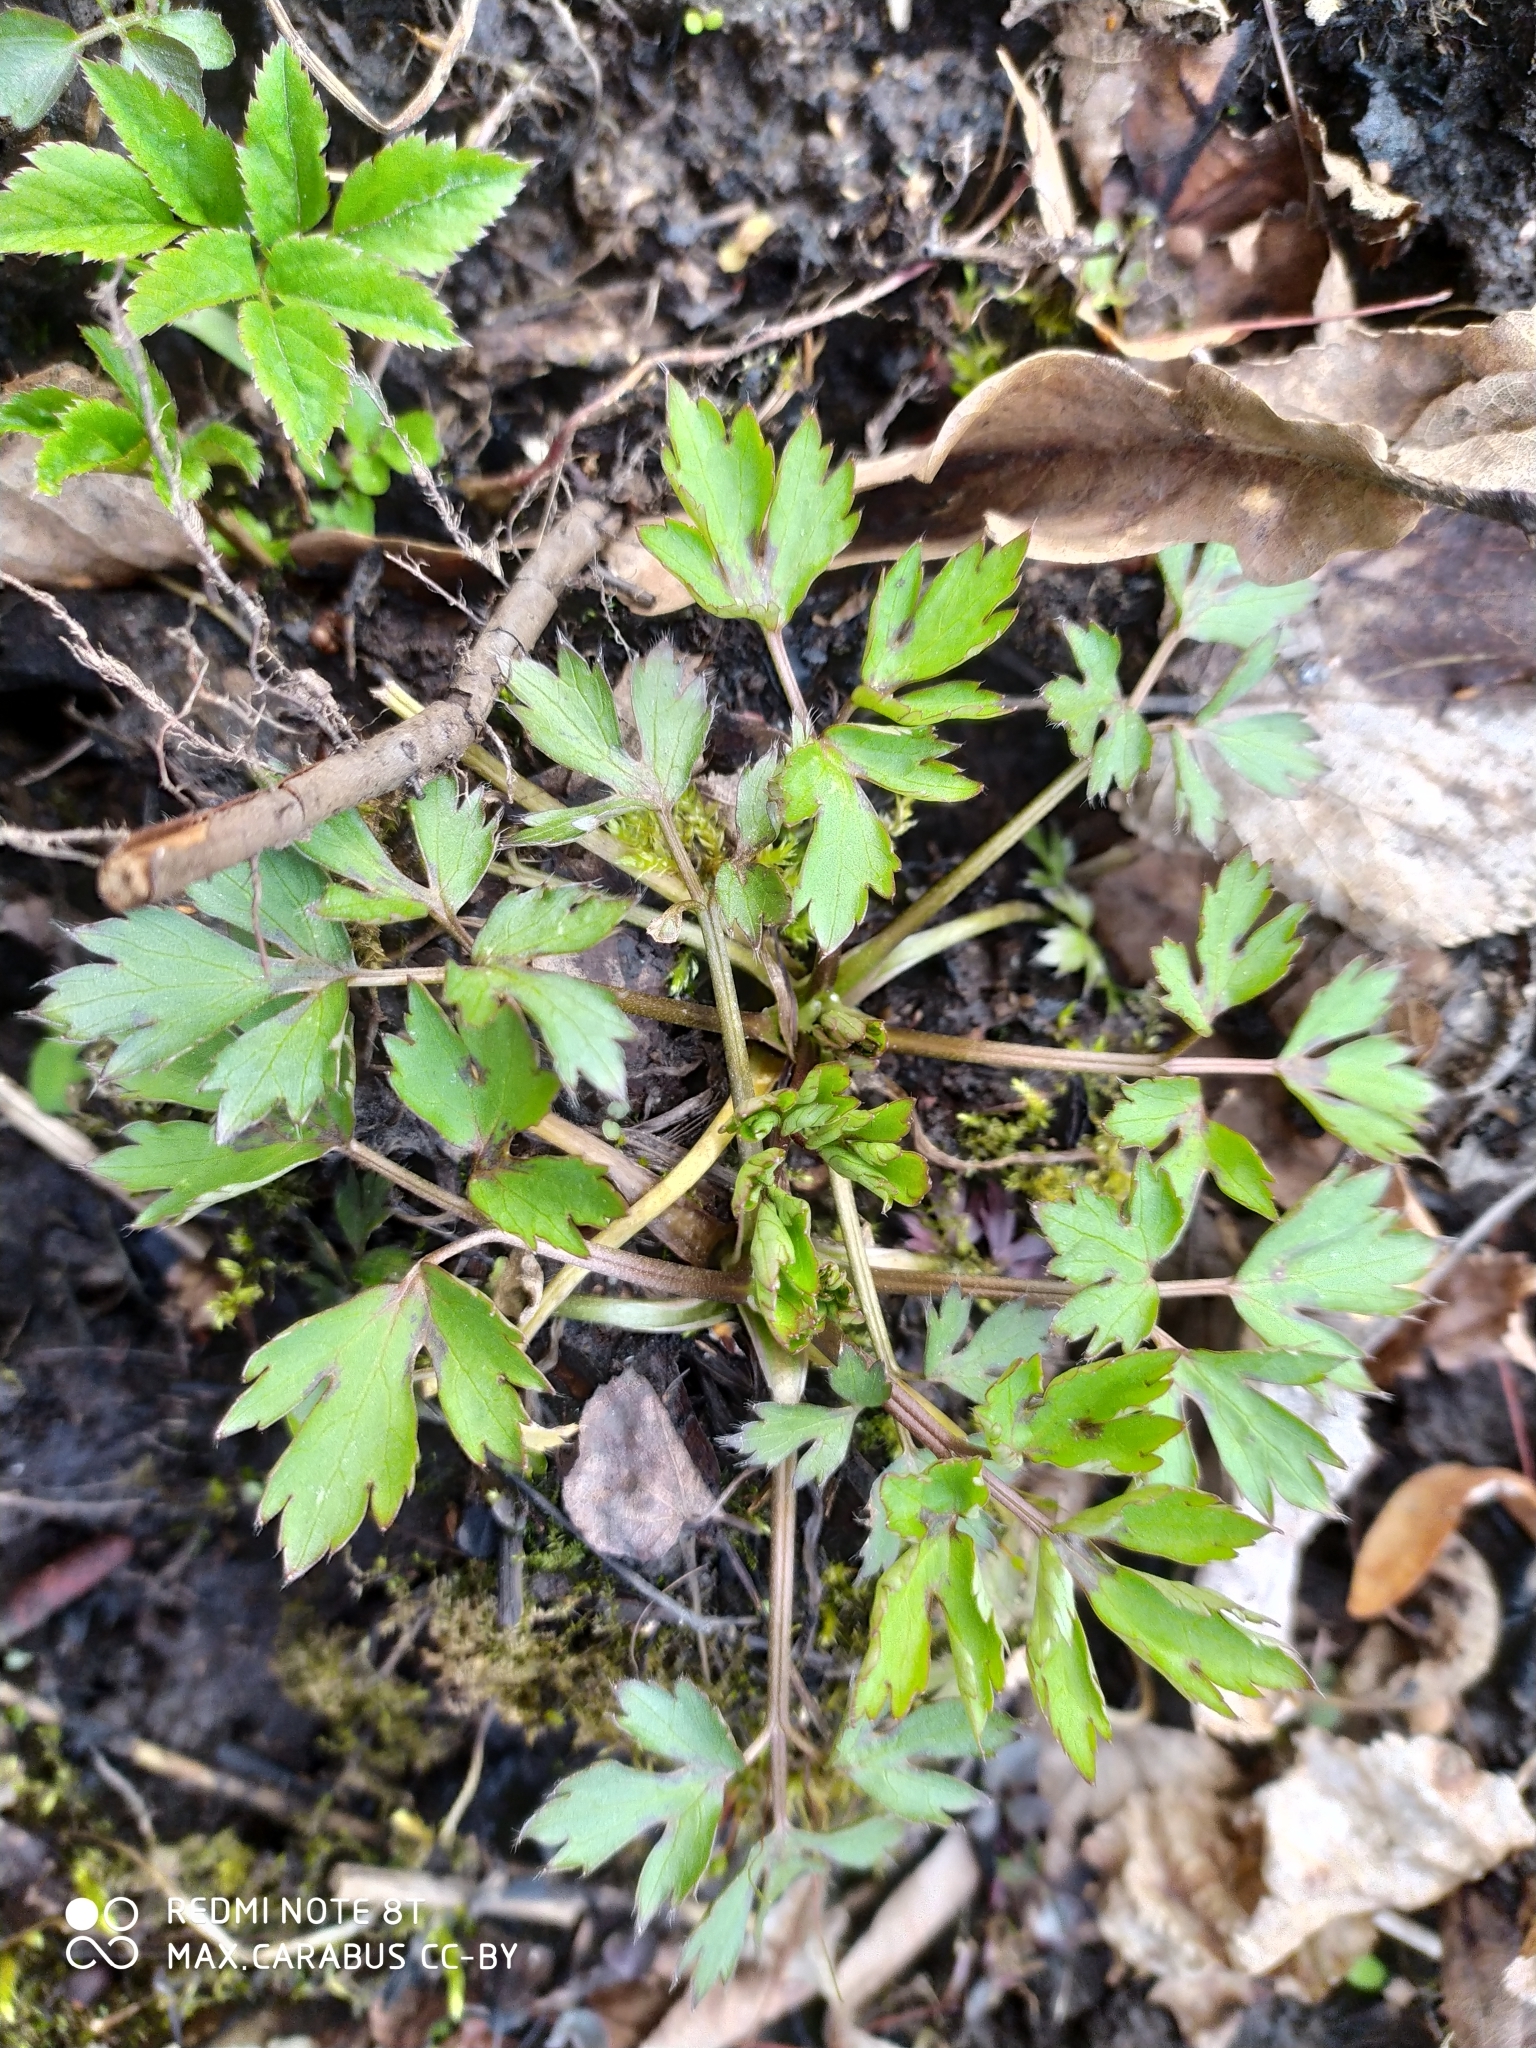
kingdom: Plantae
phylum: Tracheophyta
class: Magnoliopsida
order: Ranunculales
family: Ranunculaceae
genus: Ranunculus
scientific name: Ranunculus repens
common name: Creeping buttercup
